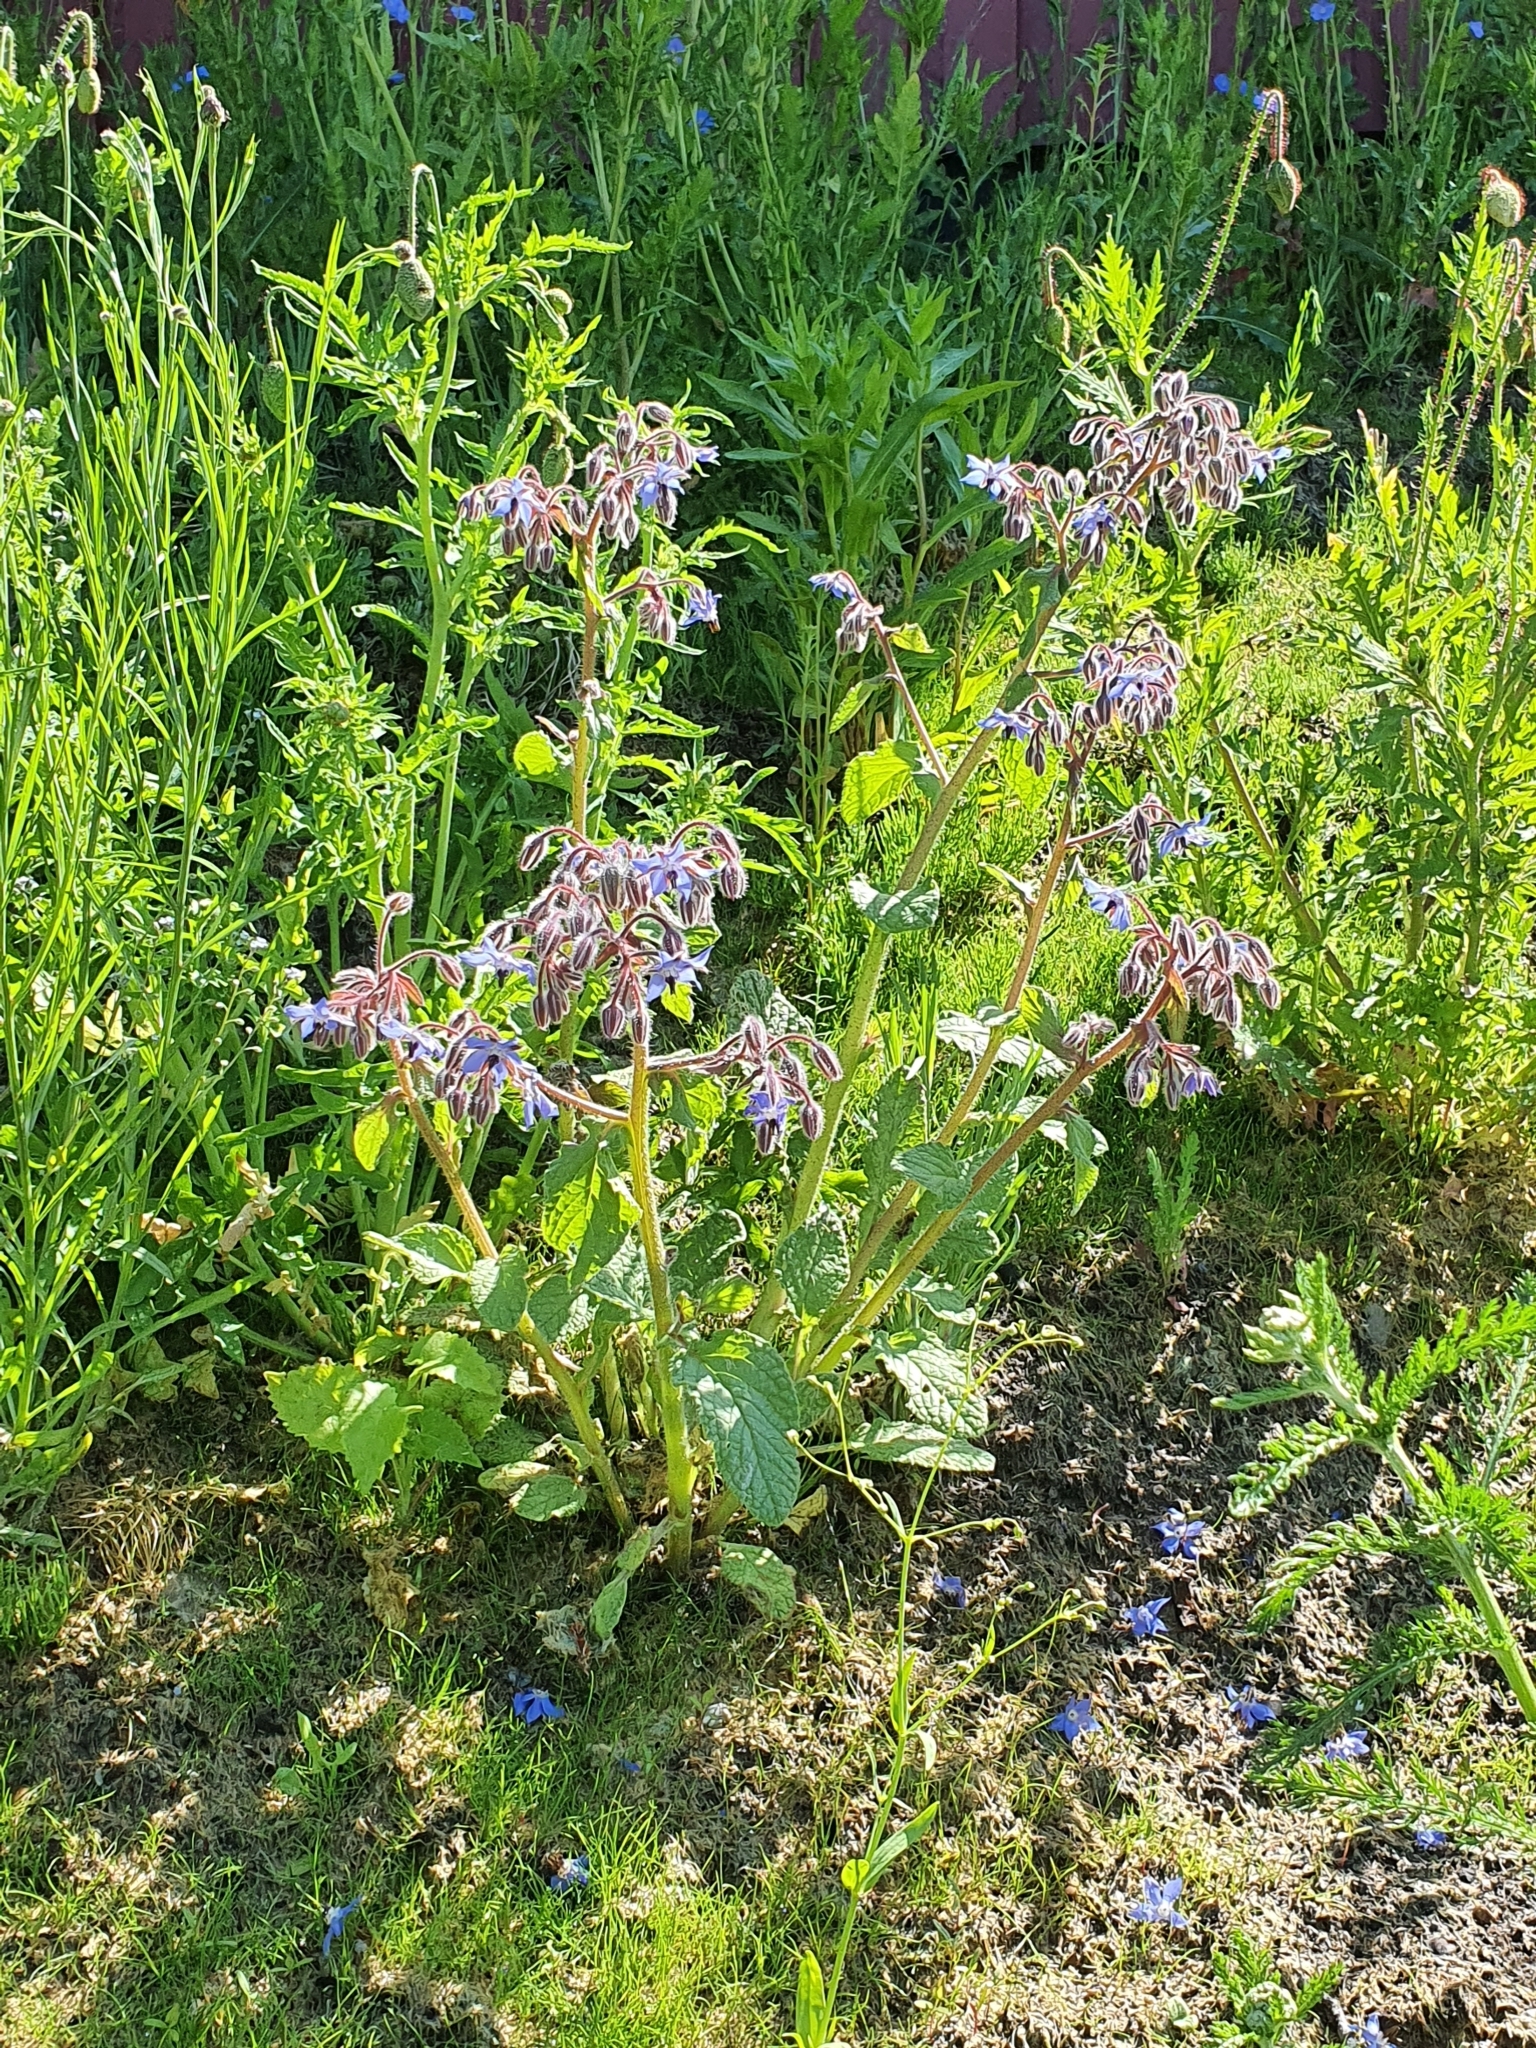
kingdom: Plantae
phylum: Tracheophyta
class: Magnoliopsida
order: Boraginales
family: Boraginaceae
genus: Borago
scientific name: Borago officinalis
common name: Borage
